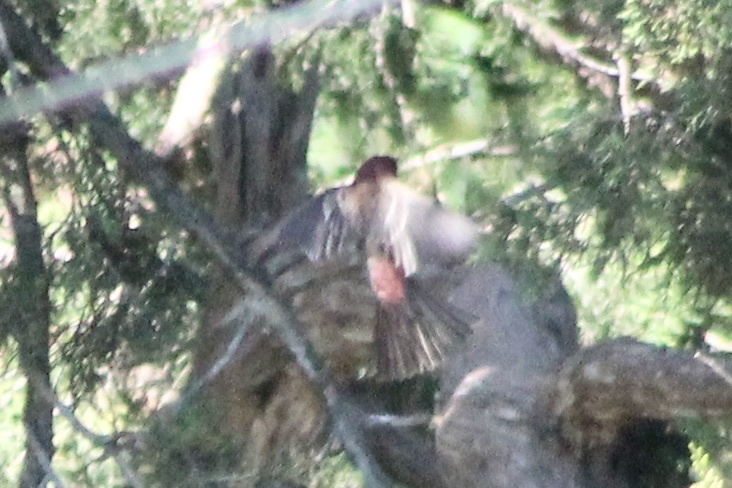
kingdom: Animalia
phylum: Chordata
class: Aves
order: Passeriformes
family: Fringillidae
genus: Haemorhous
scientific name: Haemorhous mexicanus
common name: House finch
